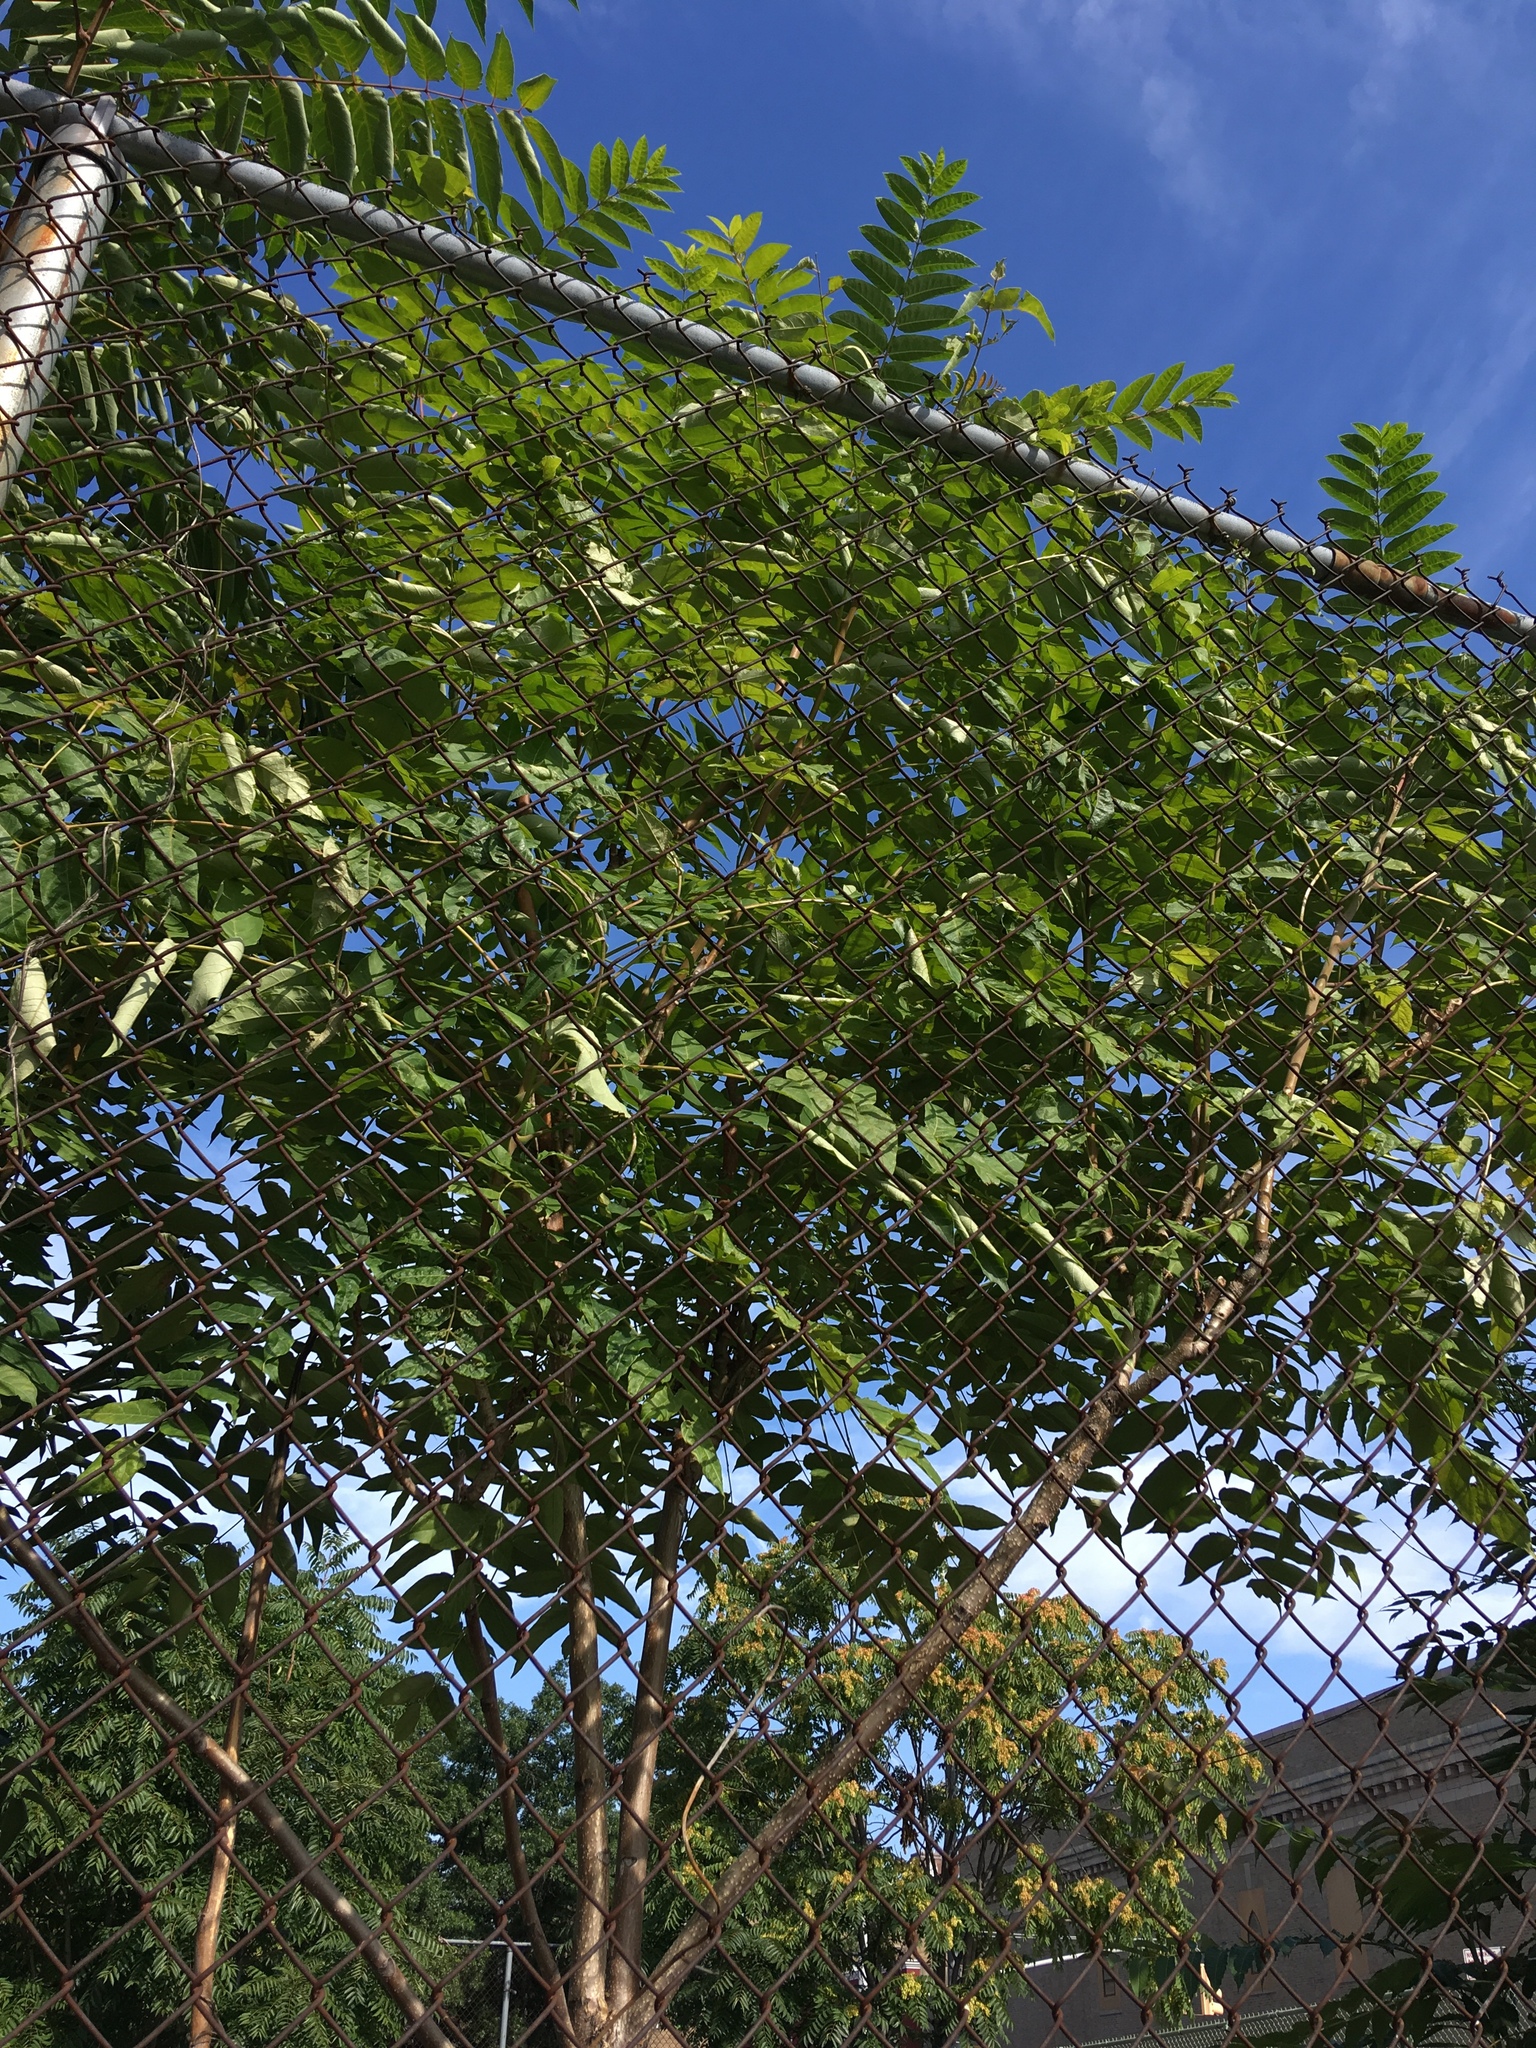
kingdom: Plantae
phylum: Tracheophyta
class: Magnoliopsida
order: Sapindales
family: Simaroubaceae
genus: Ailanthus
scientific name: Ailanthus altissima
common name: Tree-of-heaven
